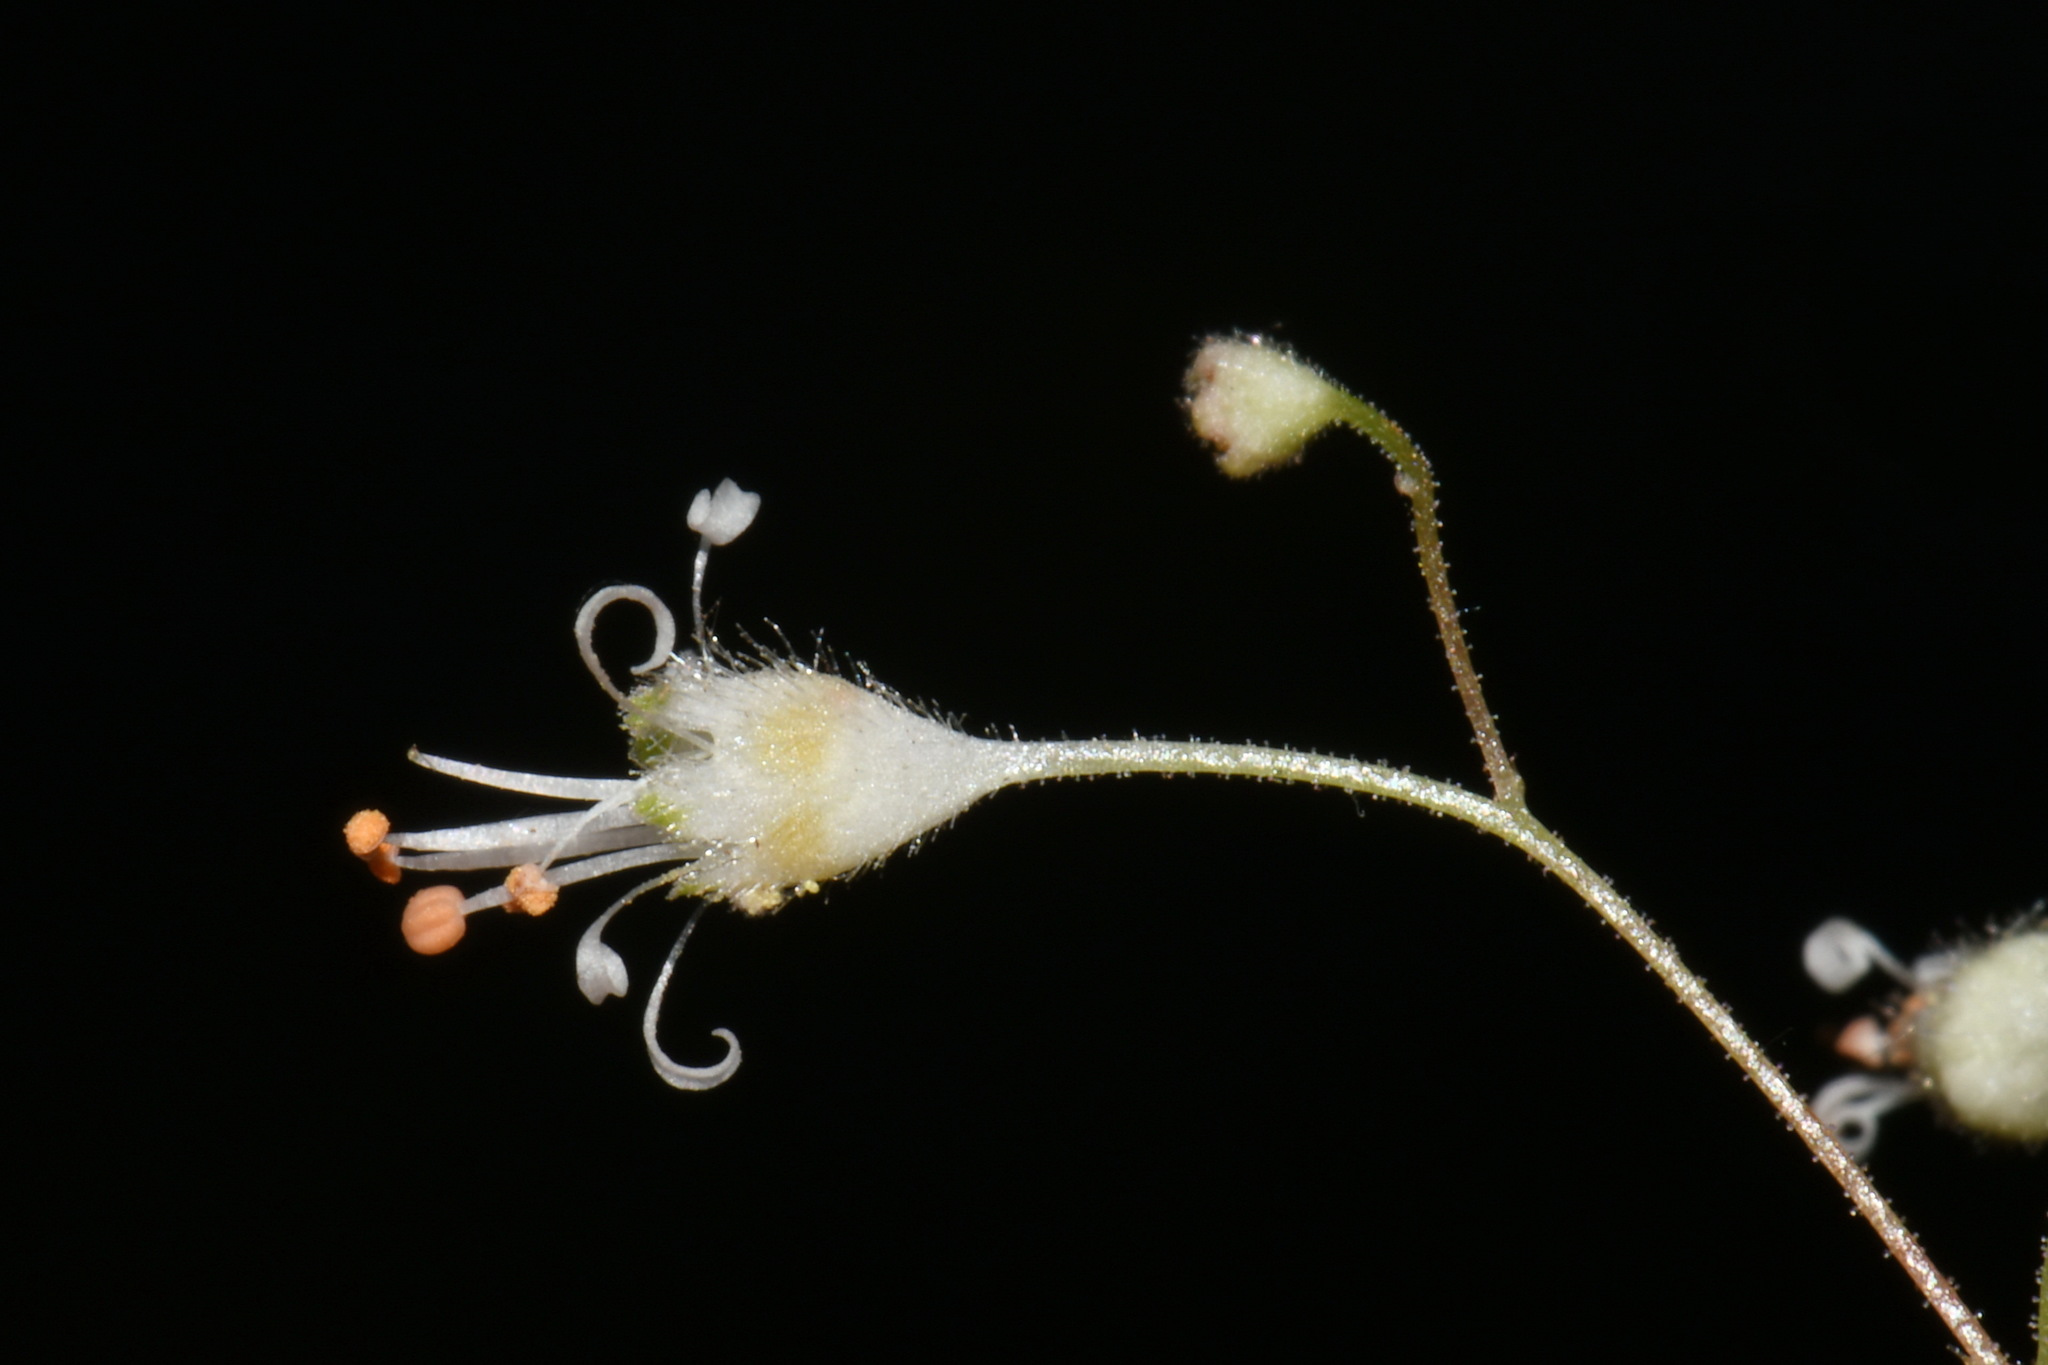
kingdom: Plantae
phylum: Tracheophyta
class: Magnoliopsida
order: Saxifragales
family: Saxifragaceae
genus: Heuchera
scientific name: Heuchera micrantha
